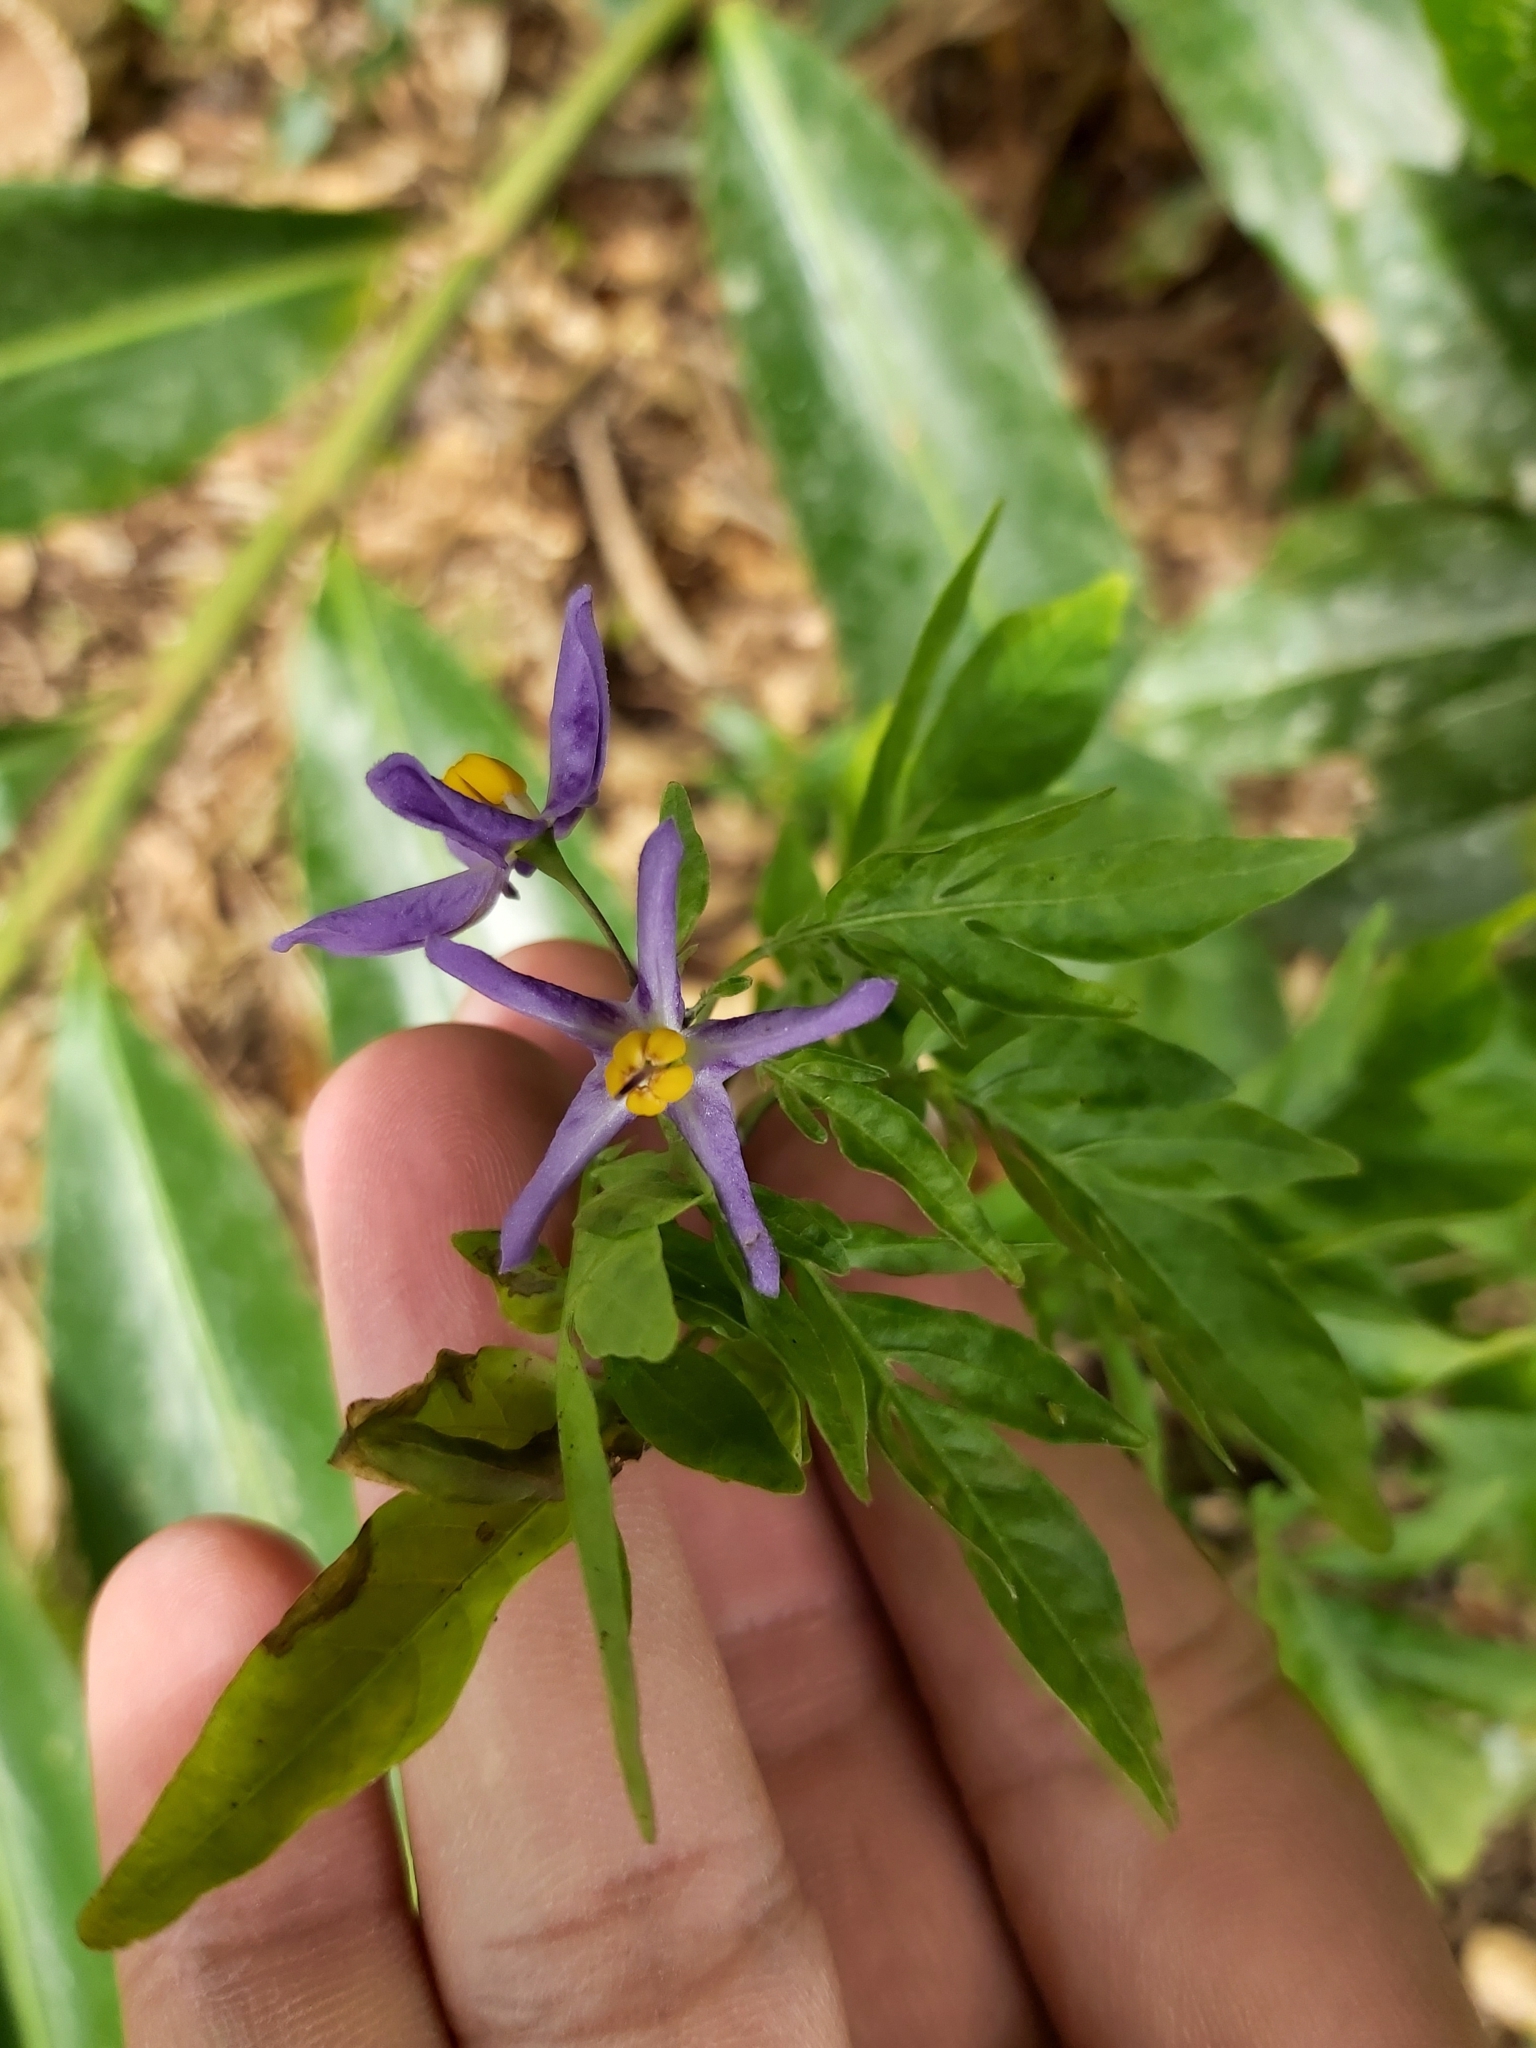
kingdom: Plantae
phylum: Tracheophyta
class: Magnoliopsida
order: Solanales
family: Solanaceae
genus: Solanum
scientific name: Solanum seaforthianum
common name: Brazilian nightshade
